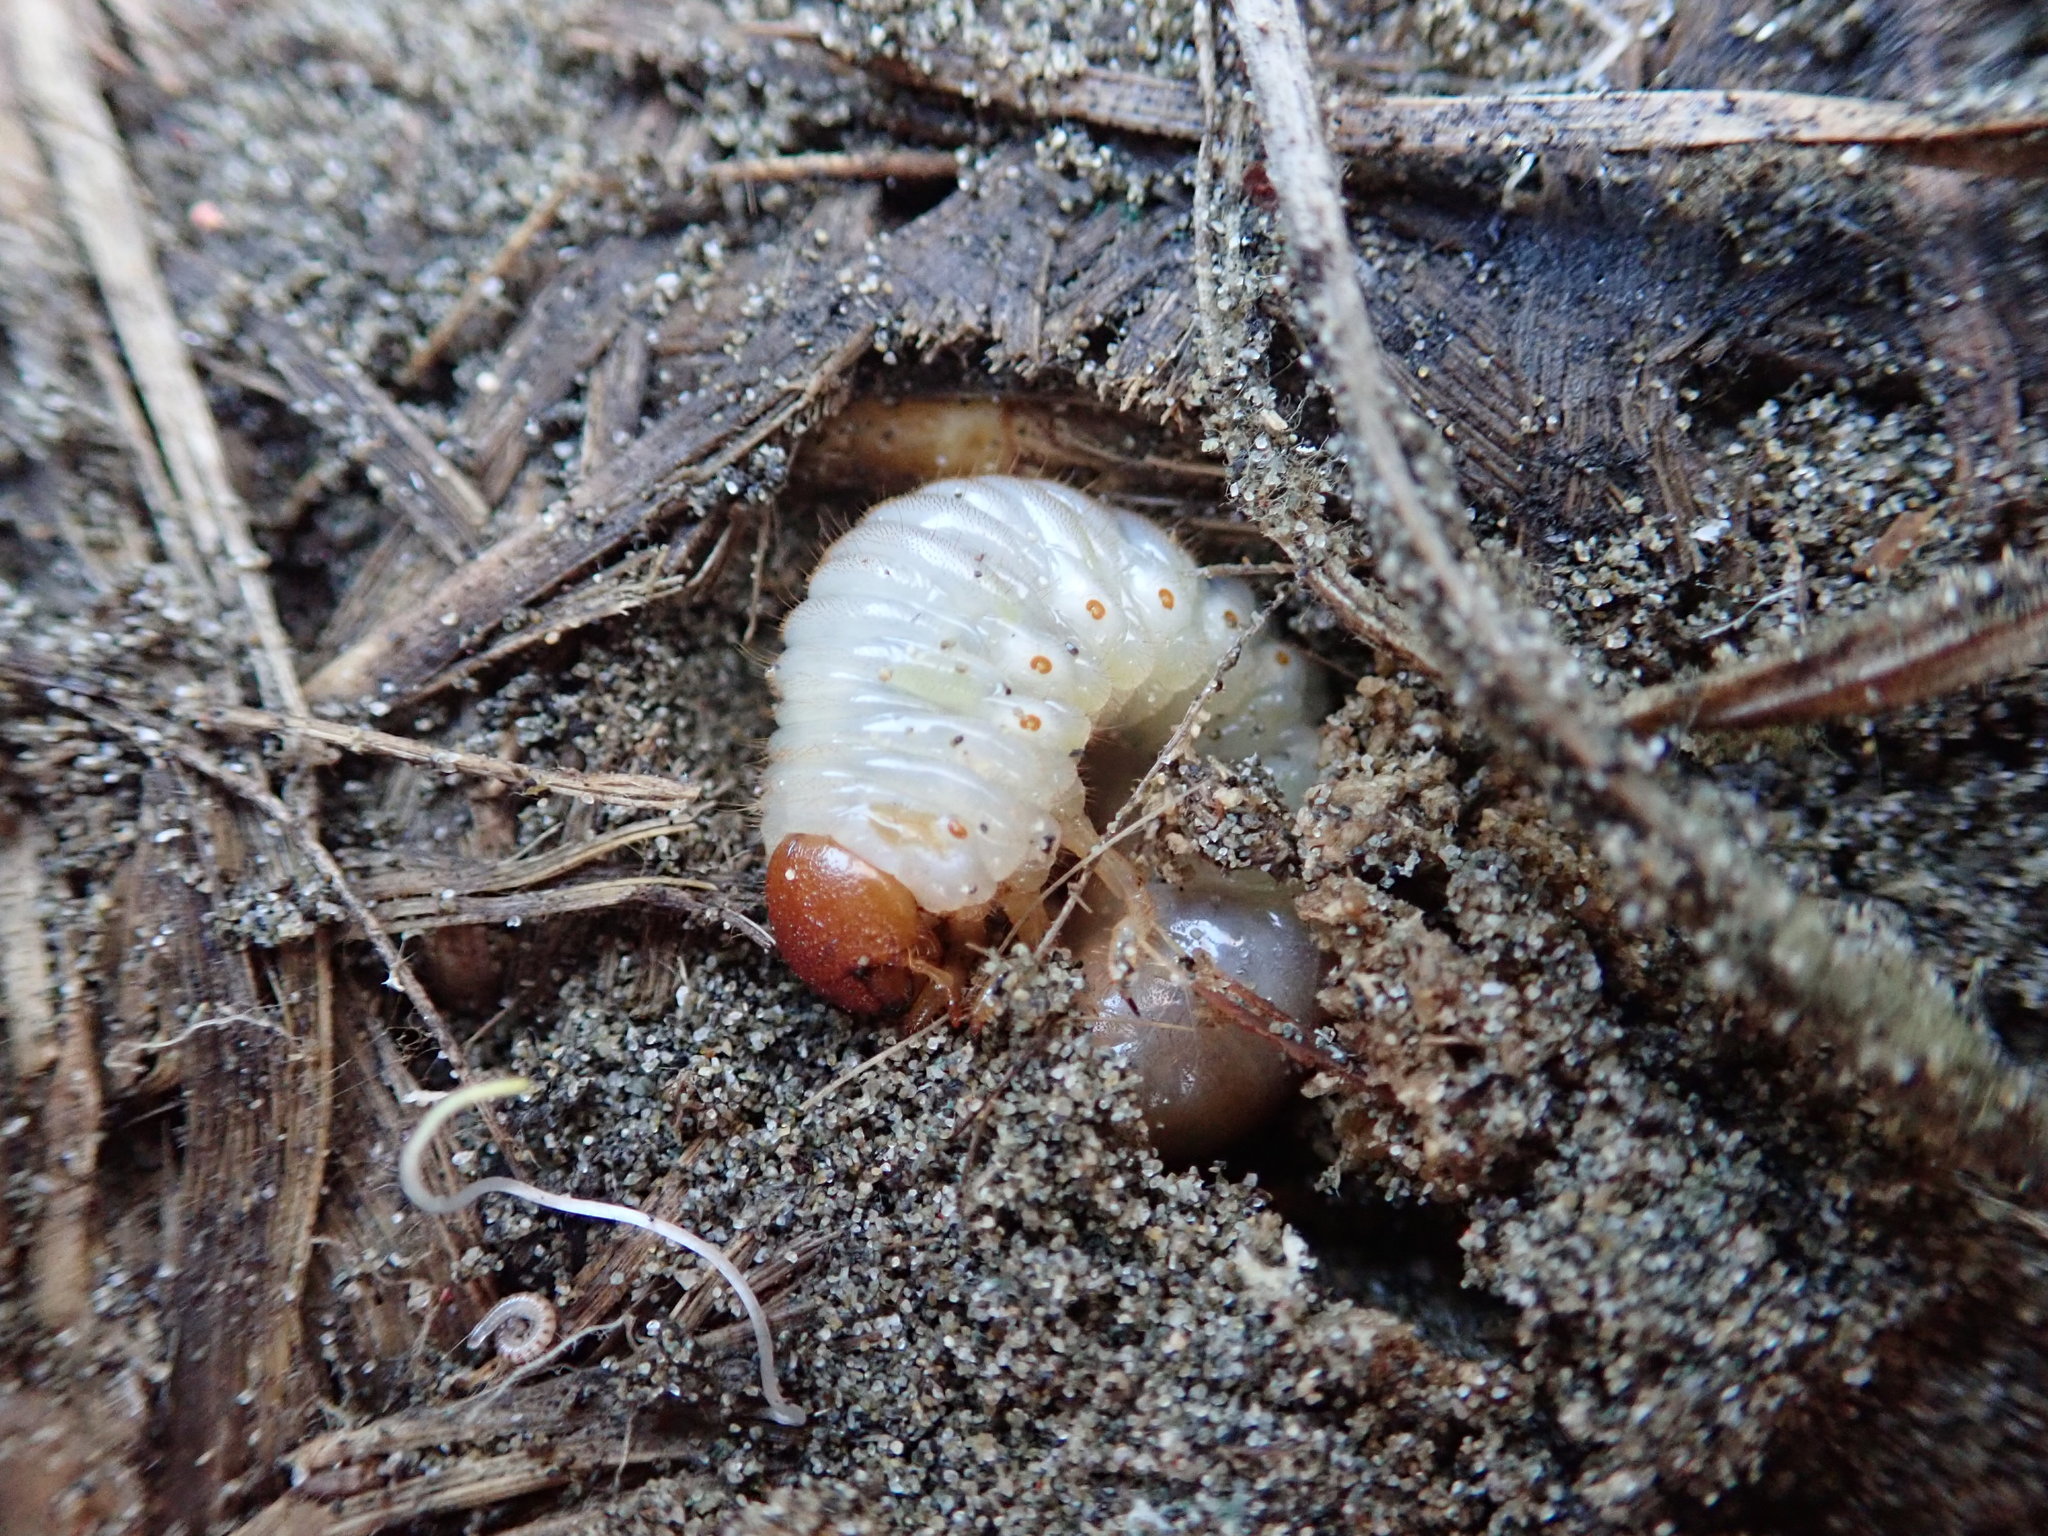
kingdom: Animalia
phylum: Arthropoda
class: Insecta
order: Coleoptera
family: Scarabaeidae
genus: Pericoptus
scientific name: Pericoptus truncatus
